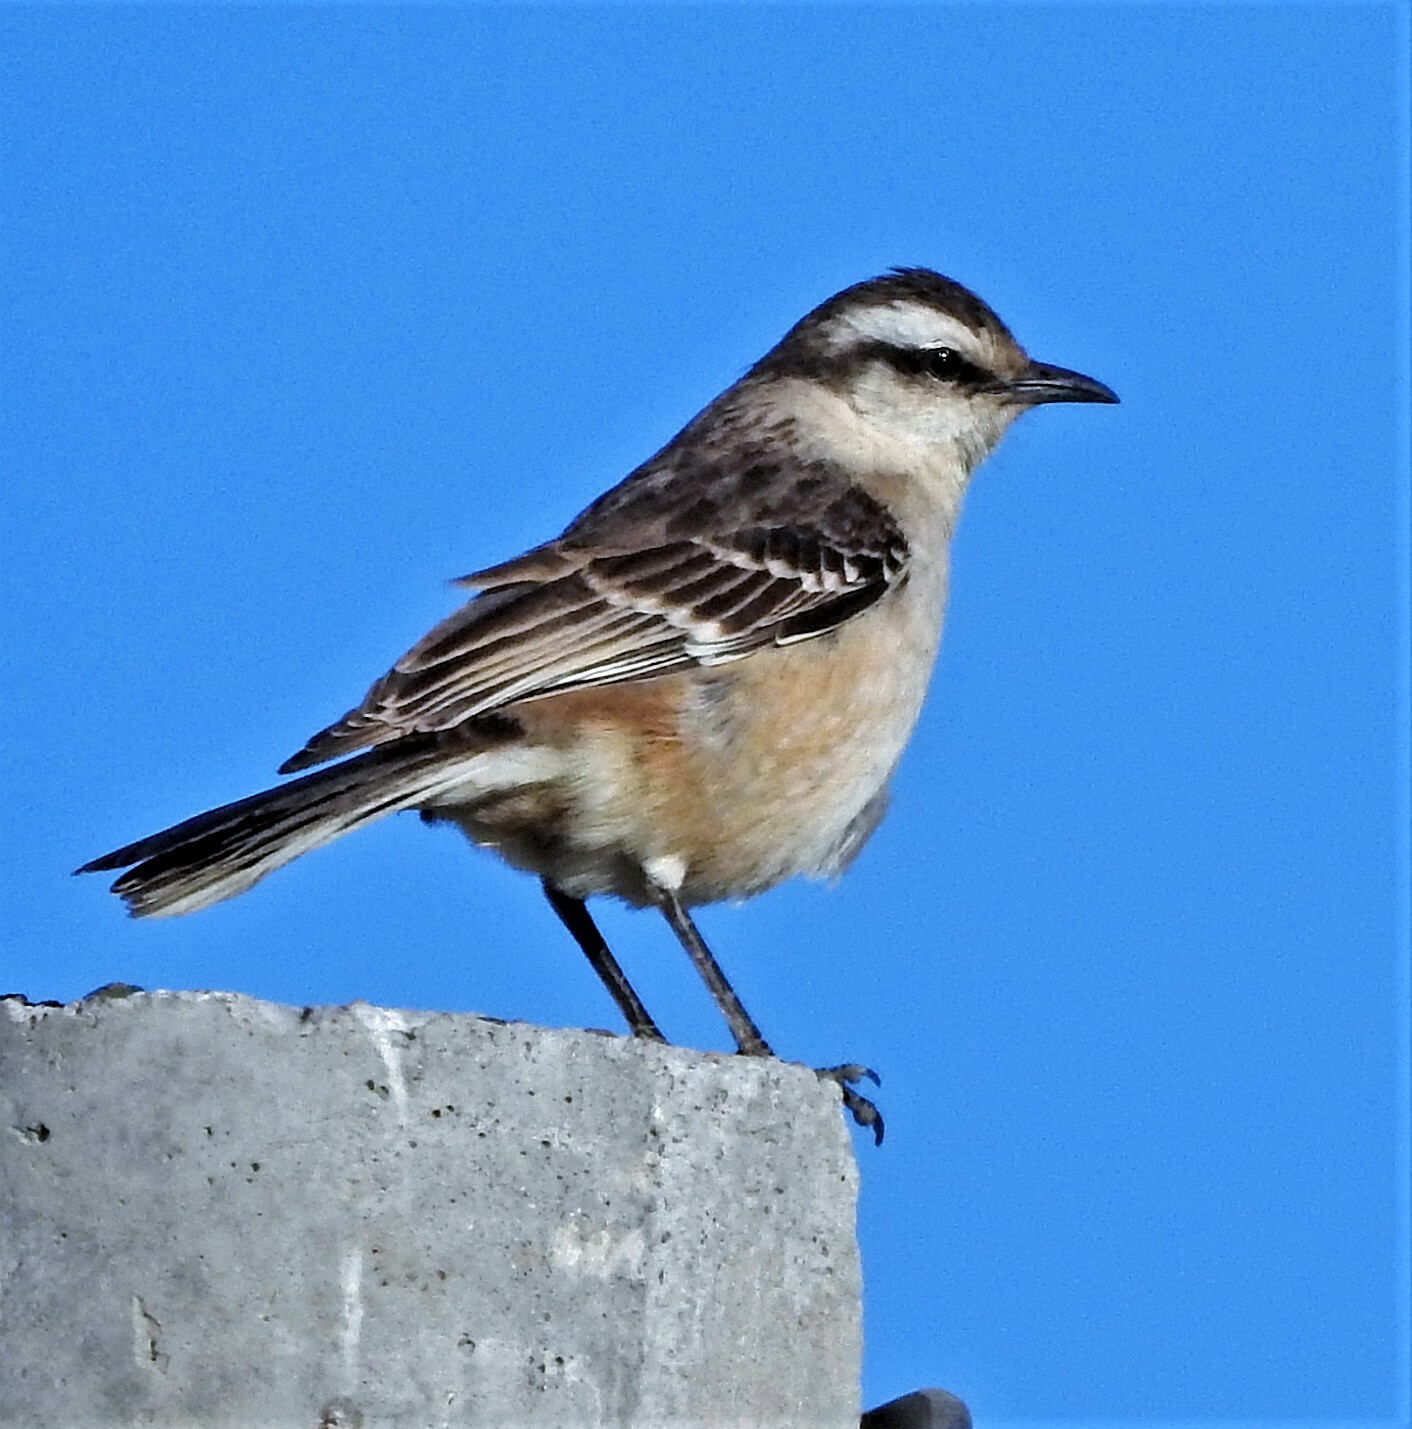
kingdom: Animalia
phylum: Chordata
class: Aves
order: Passeriformes
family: Mimidae
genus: Mimus
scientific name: Mimus saturninus
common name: Chalk-browed mockingbird
